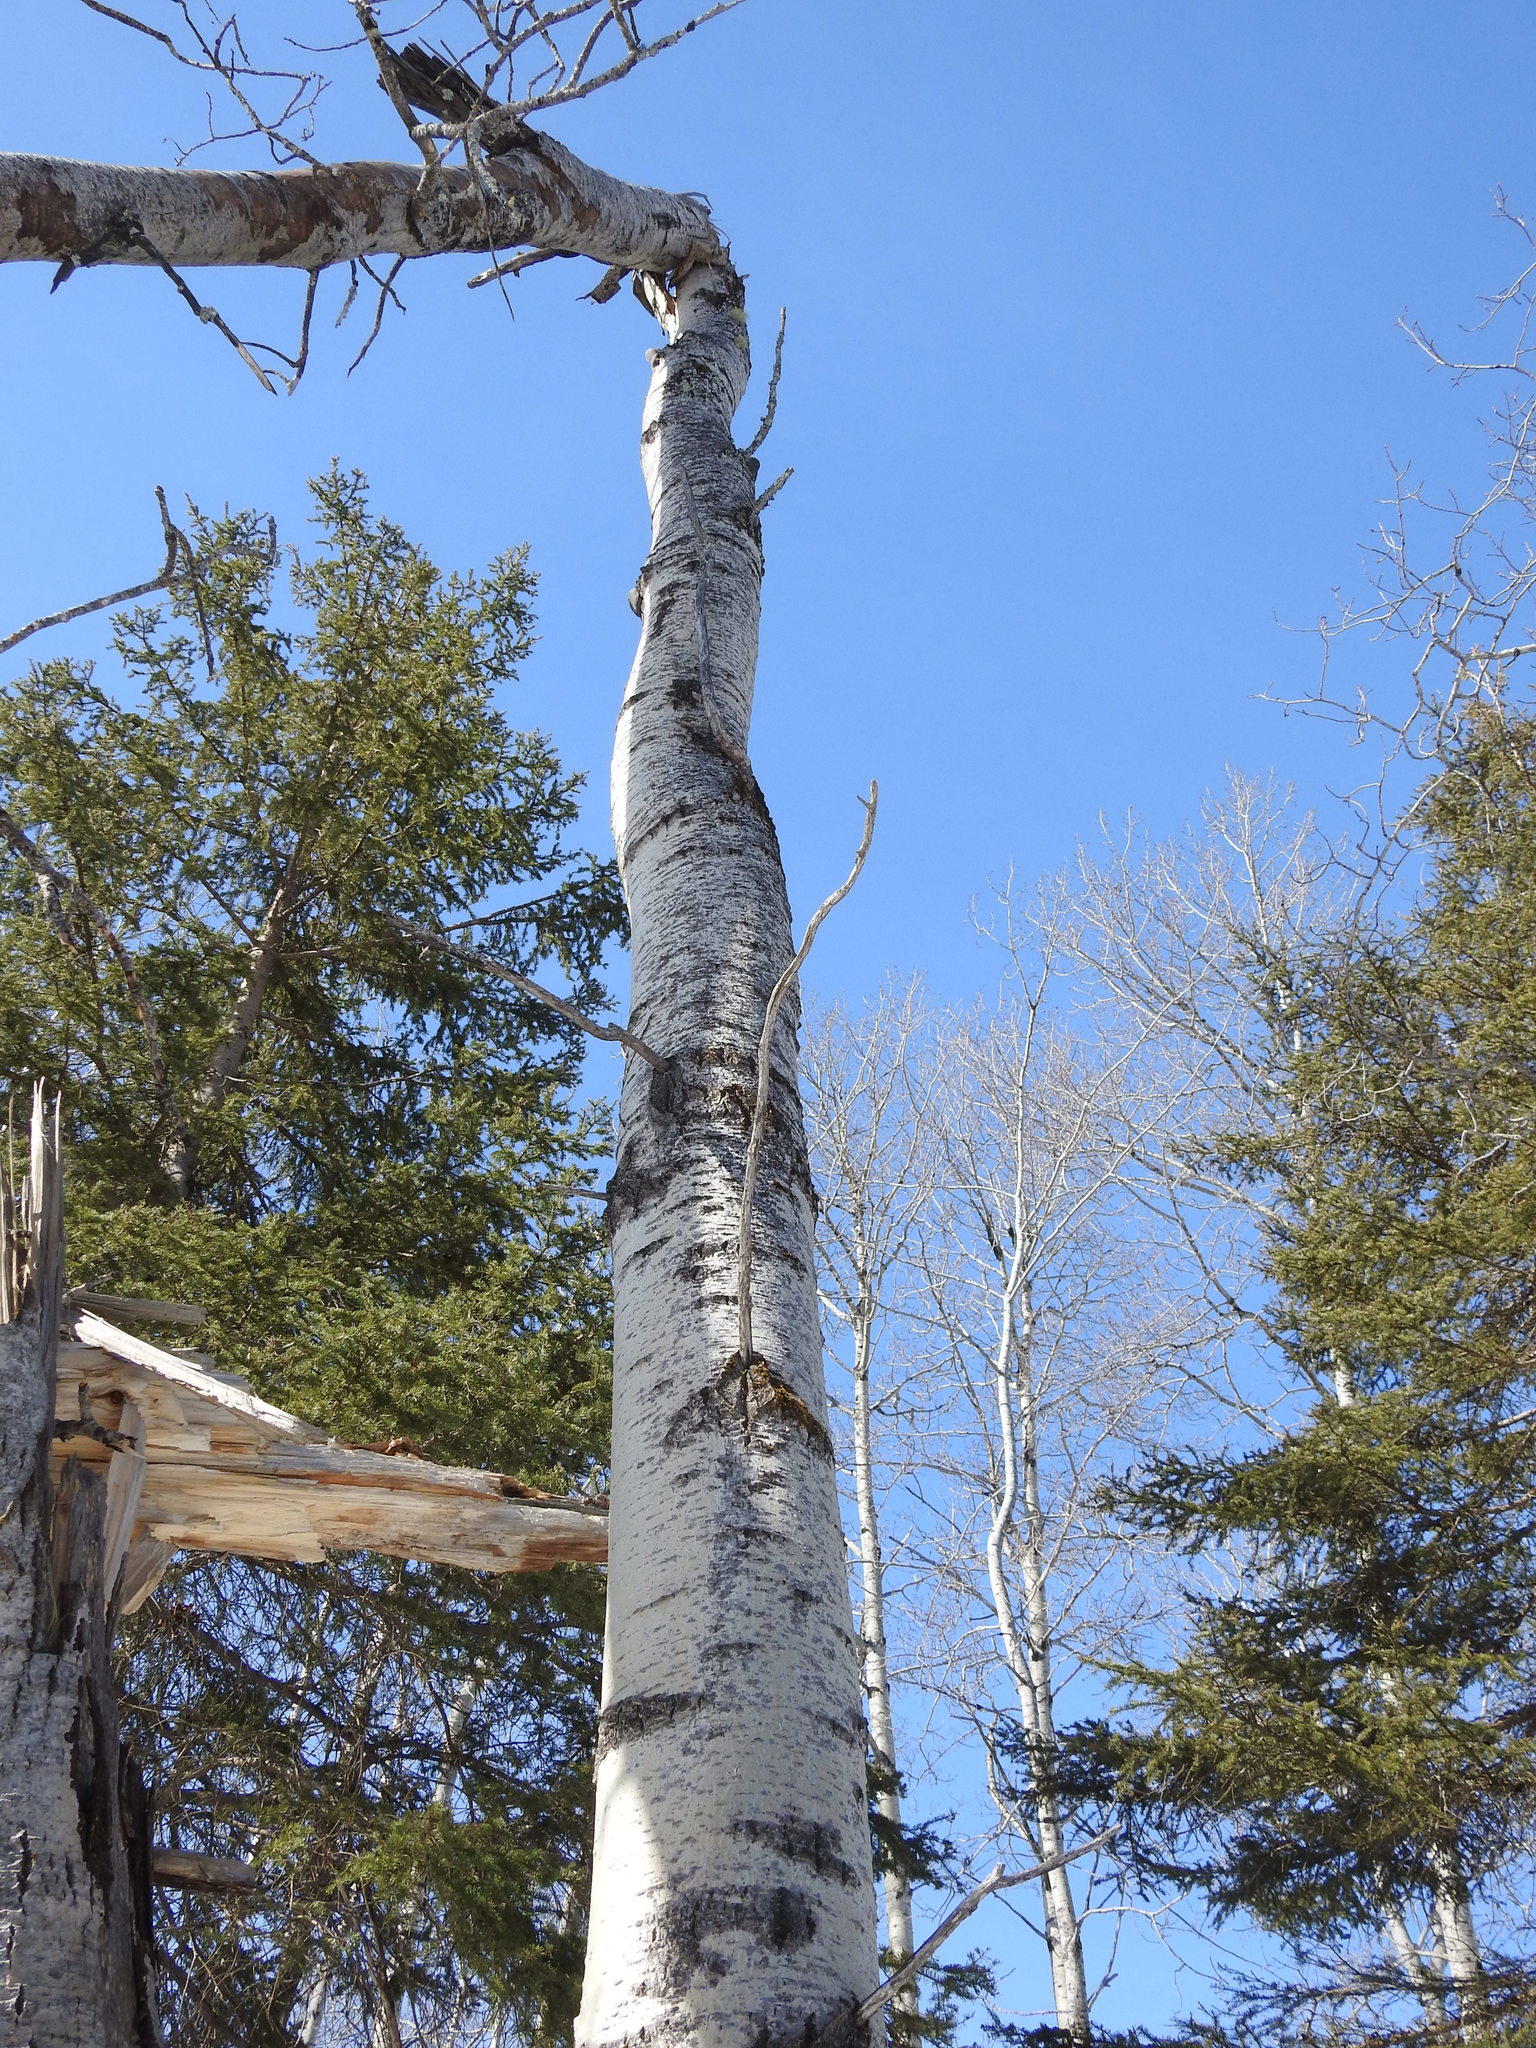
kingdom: Plantae
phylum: Tracheophyta
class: Magnoliopsida
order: Malpighiales
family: Salicaceae
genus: Populus
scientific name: Populus tremuloides
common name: Quaking aspen
